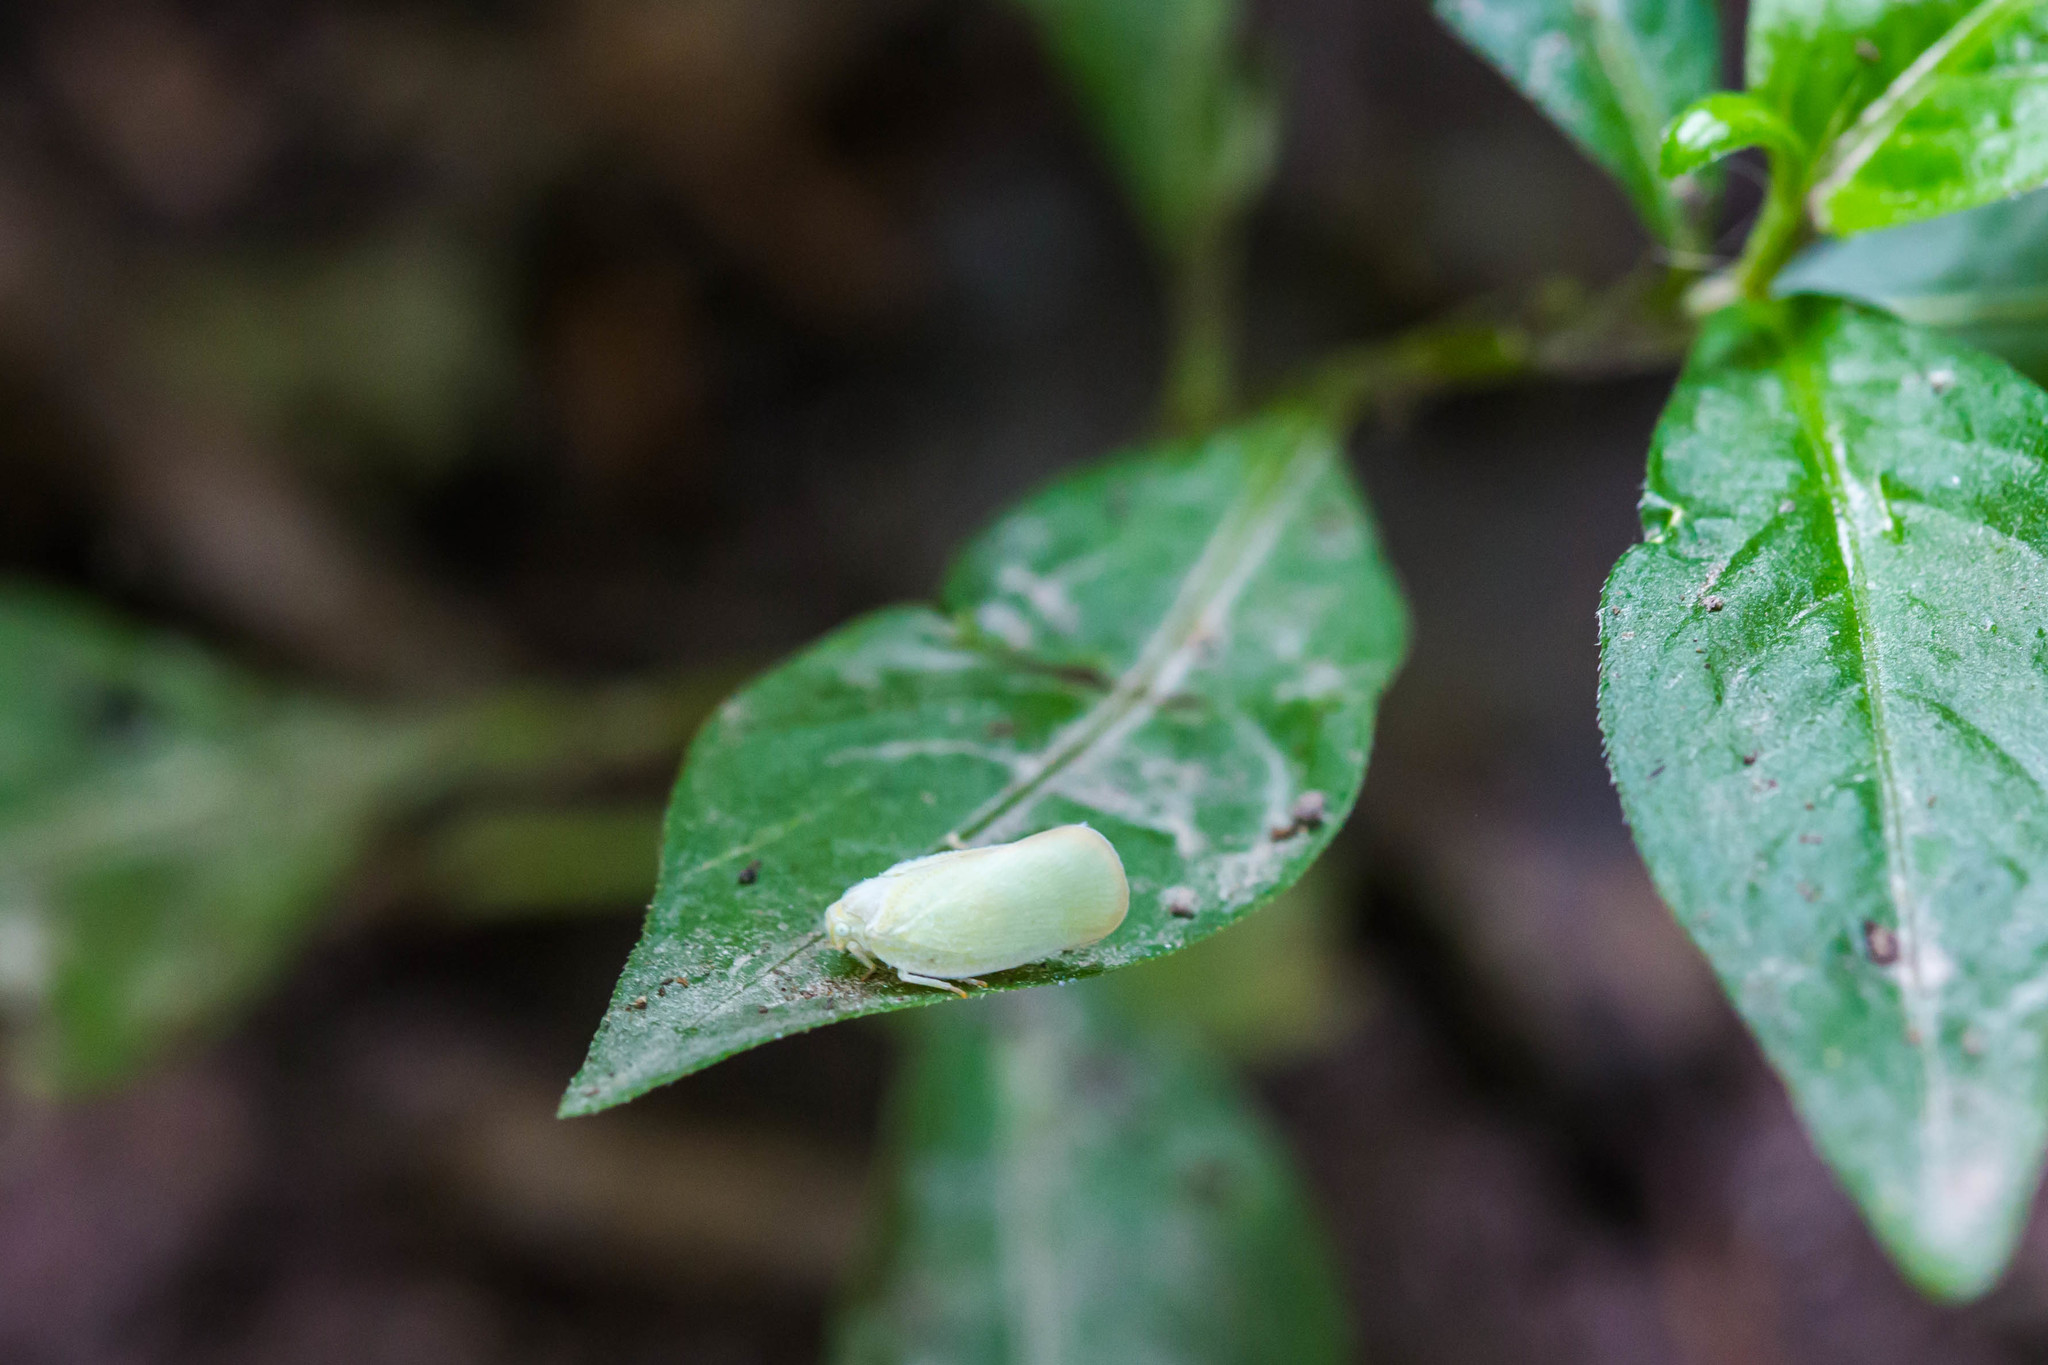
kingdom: Animalia
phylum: Arthropoda
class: Insecta
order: Hemiptera
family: Flatidae
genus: Ormenoides
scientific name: Ormenoides venusta
